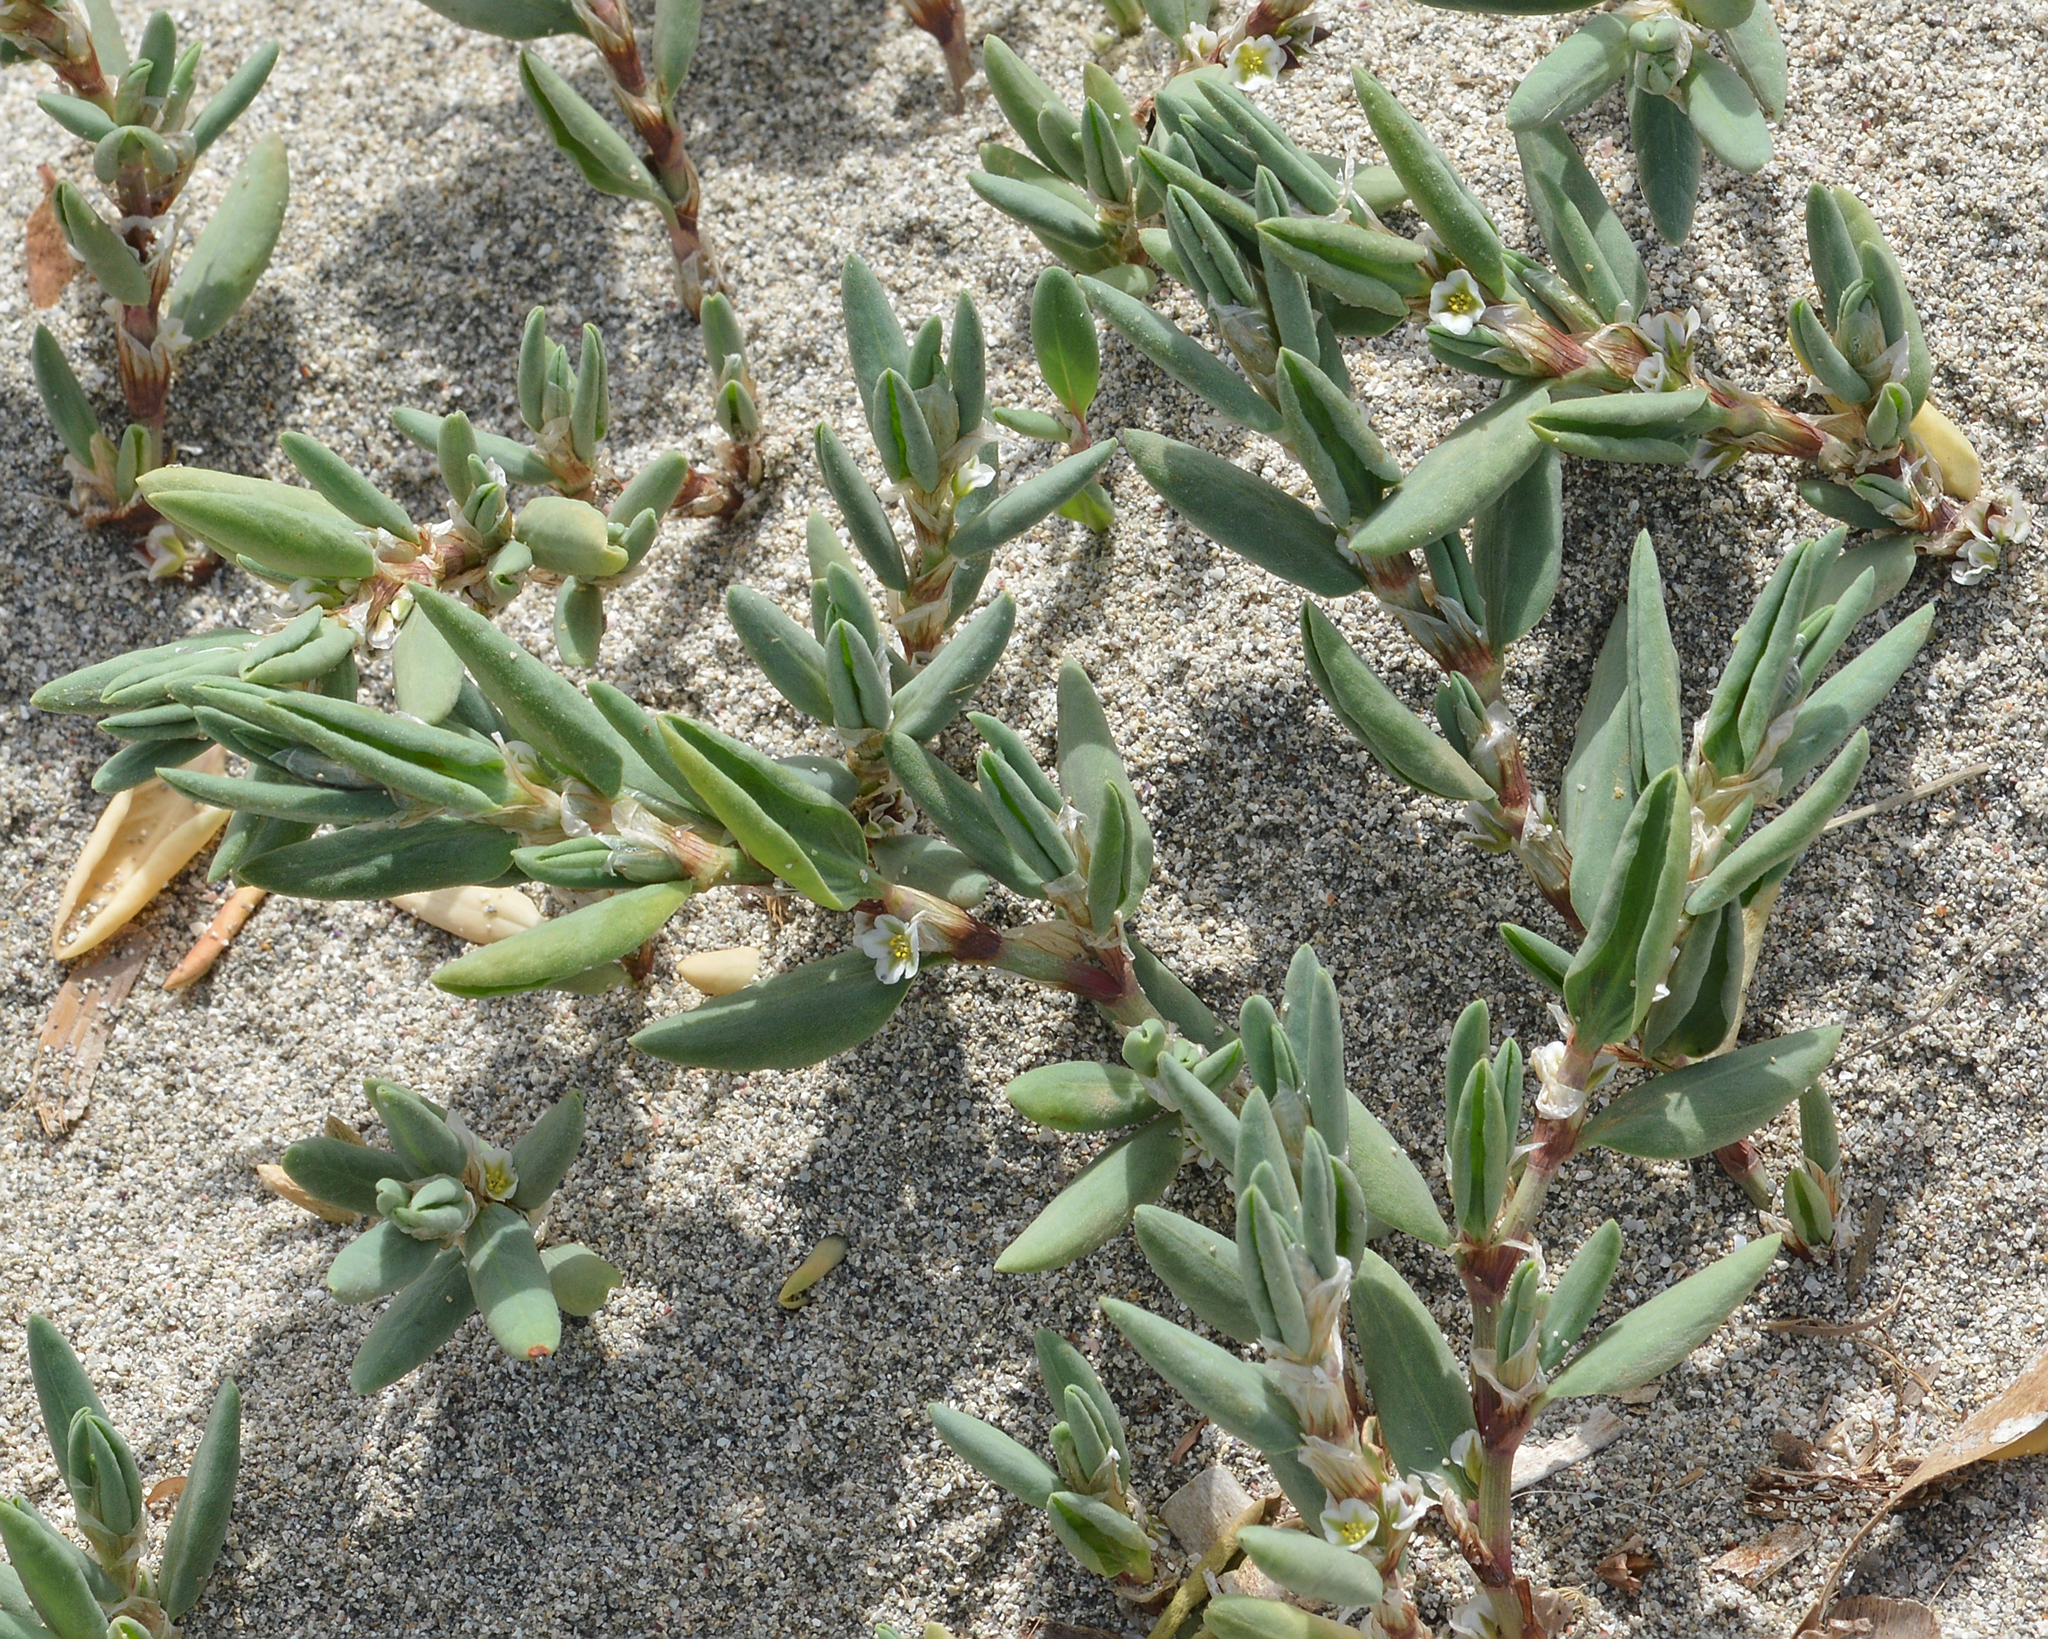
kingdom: Plantae
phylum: Tracheophyta
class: Magnoliopsida
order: Caryophyllales
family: Polygonaceae
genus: Polygonum
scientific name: Polygonum maritimum
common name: Sea knotgrass
